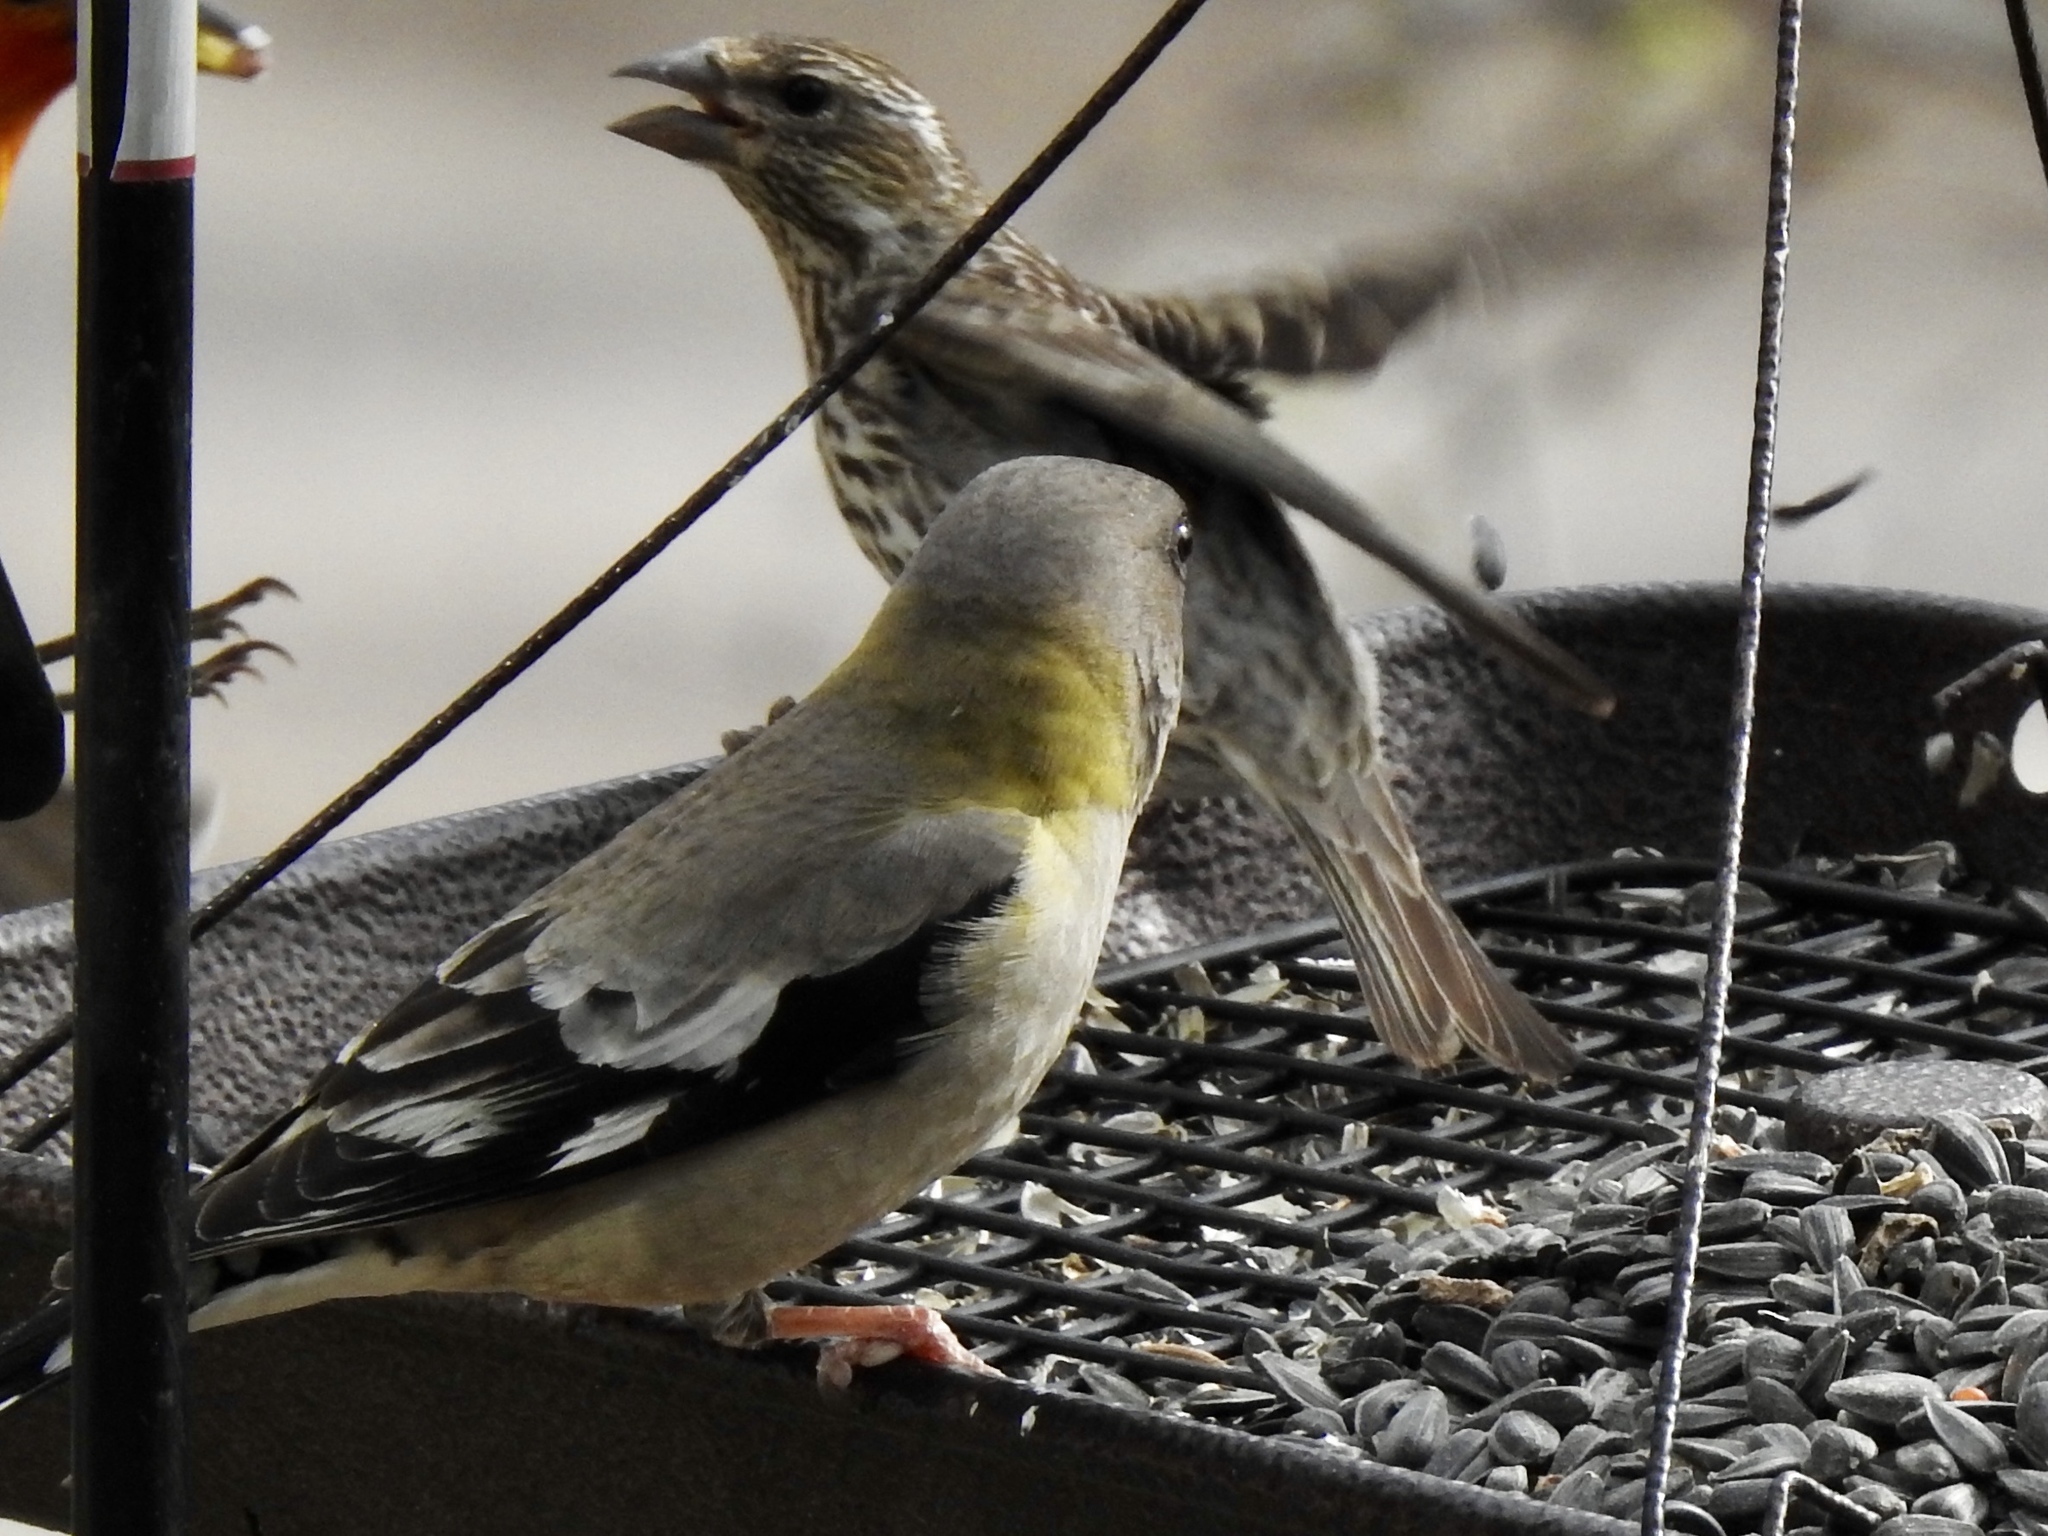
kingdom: Animalia
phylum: Chordata
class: Aves
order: Passeriformes
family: Fringillidae
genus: Hesperiphona
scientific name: Hesperiphona vespertina
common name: Evening grosbeak
